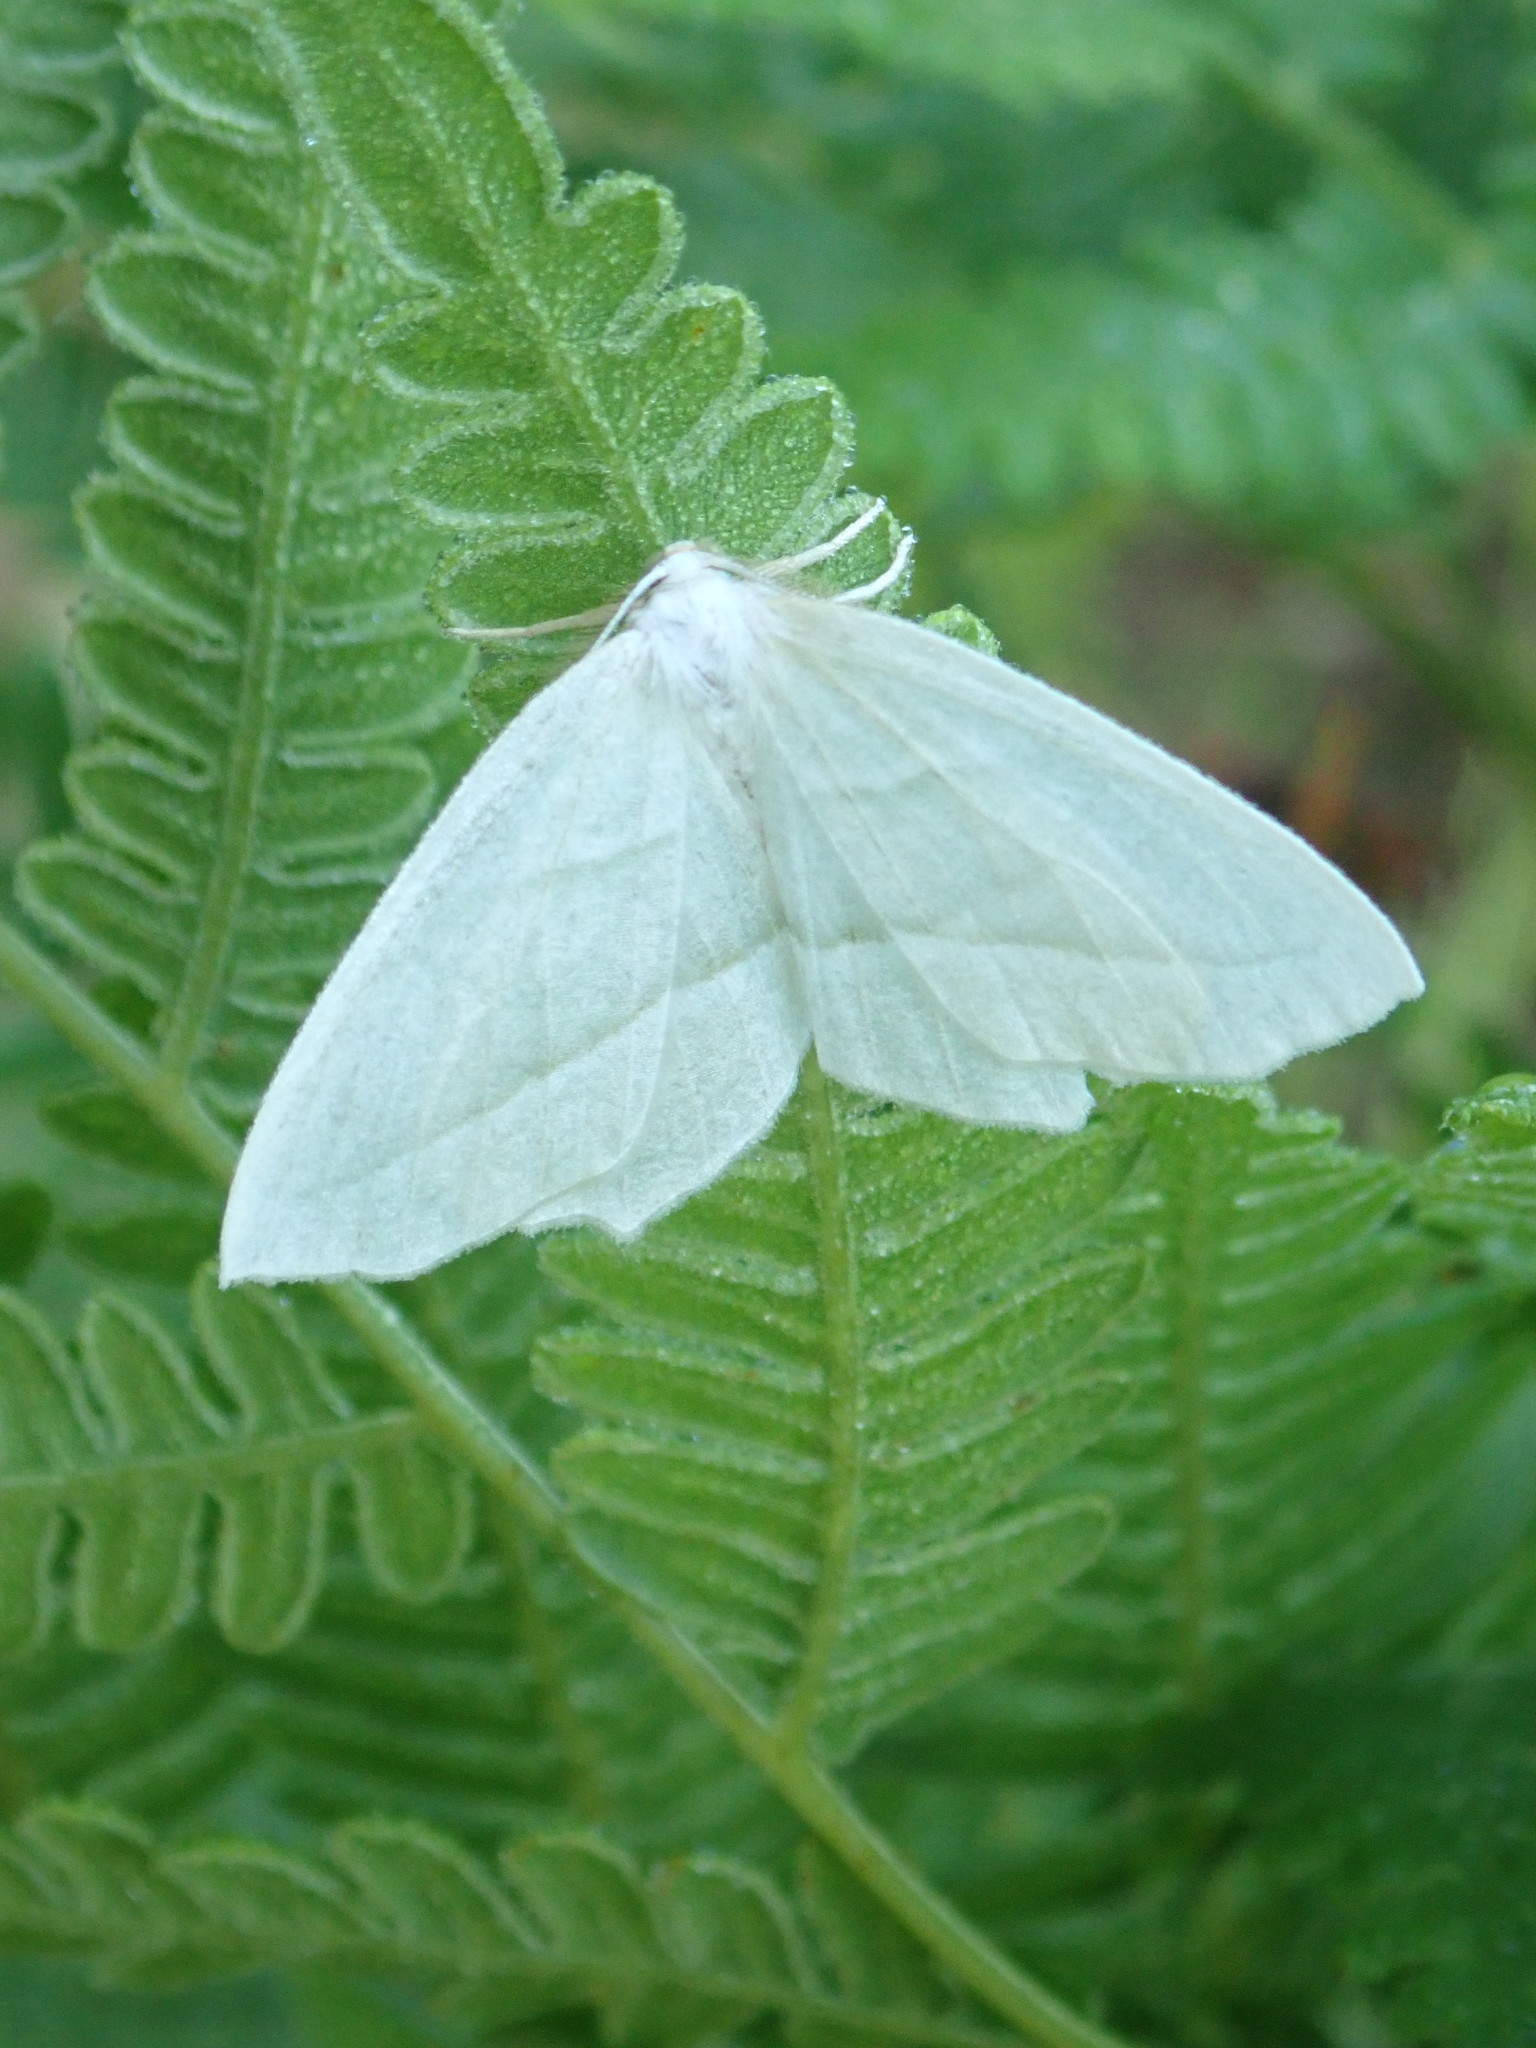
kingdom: Animalia
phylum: Arthropoda
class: Insecta
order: Lepidoptera
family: Geometridae
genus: Campaea
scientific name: Campaea perlata
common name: Fringed looper
